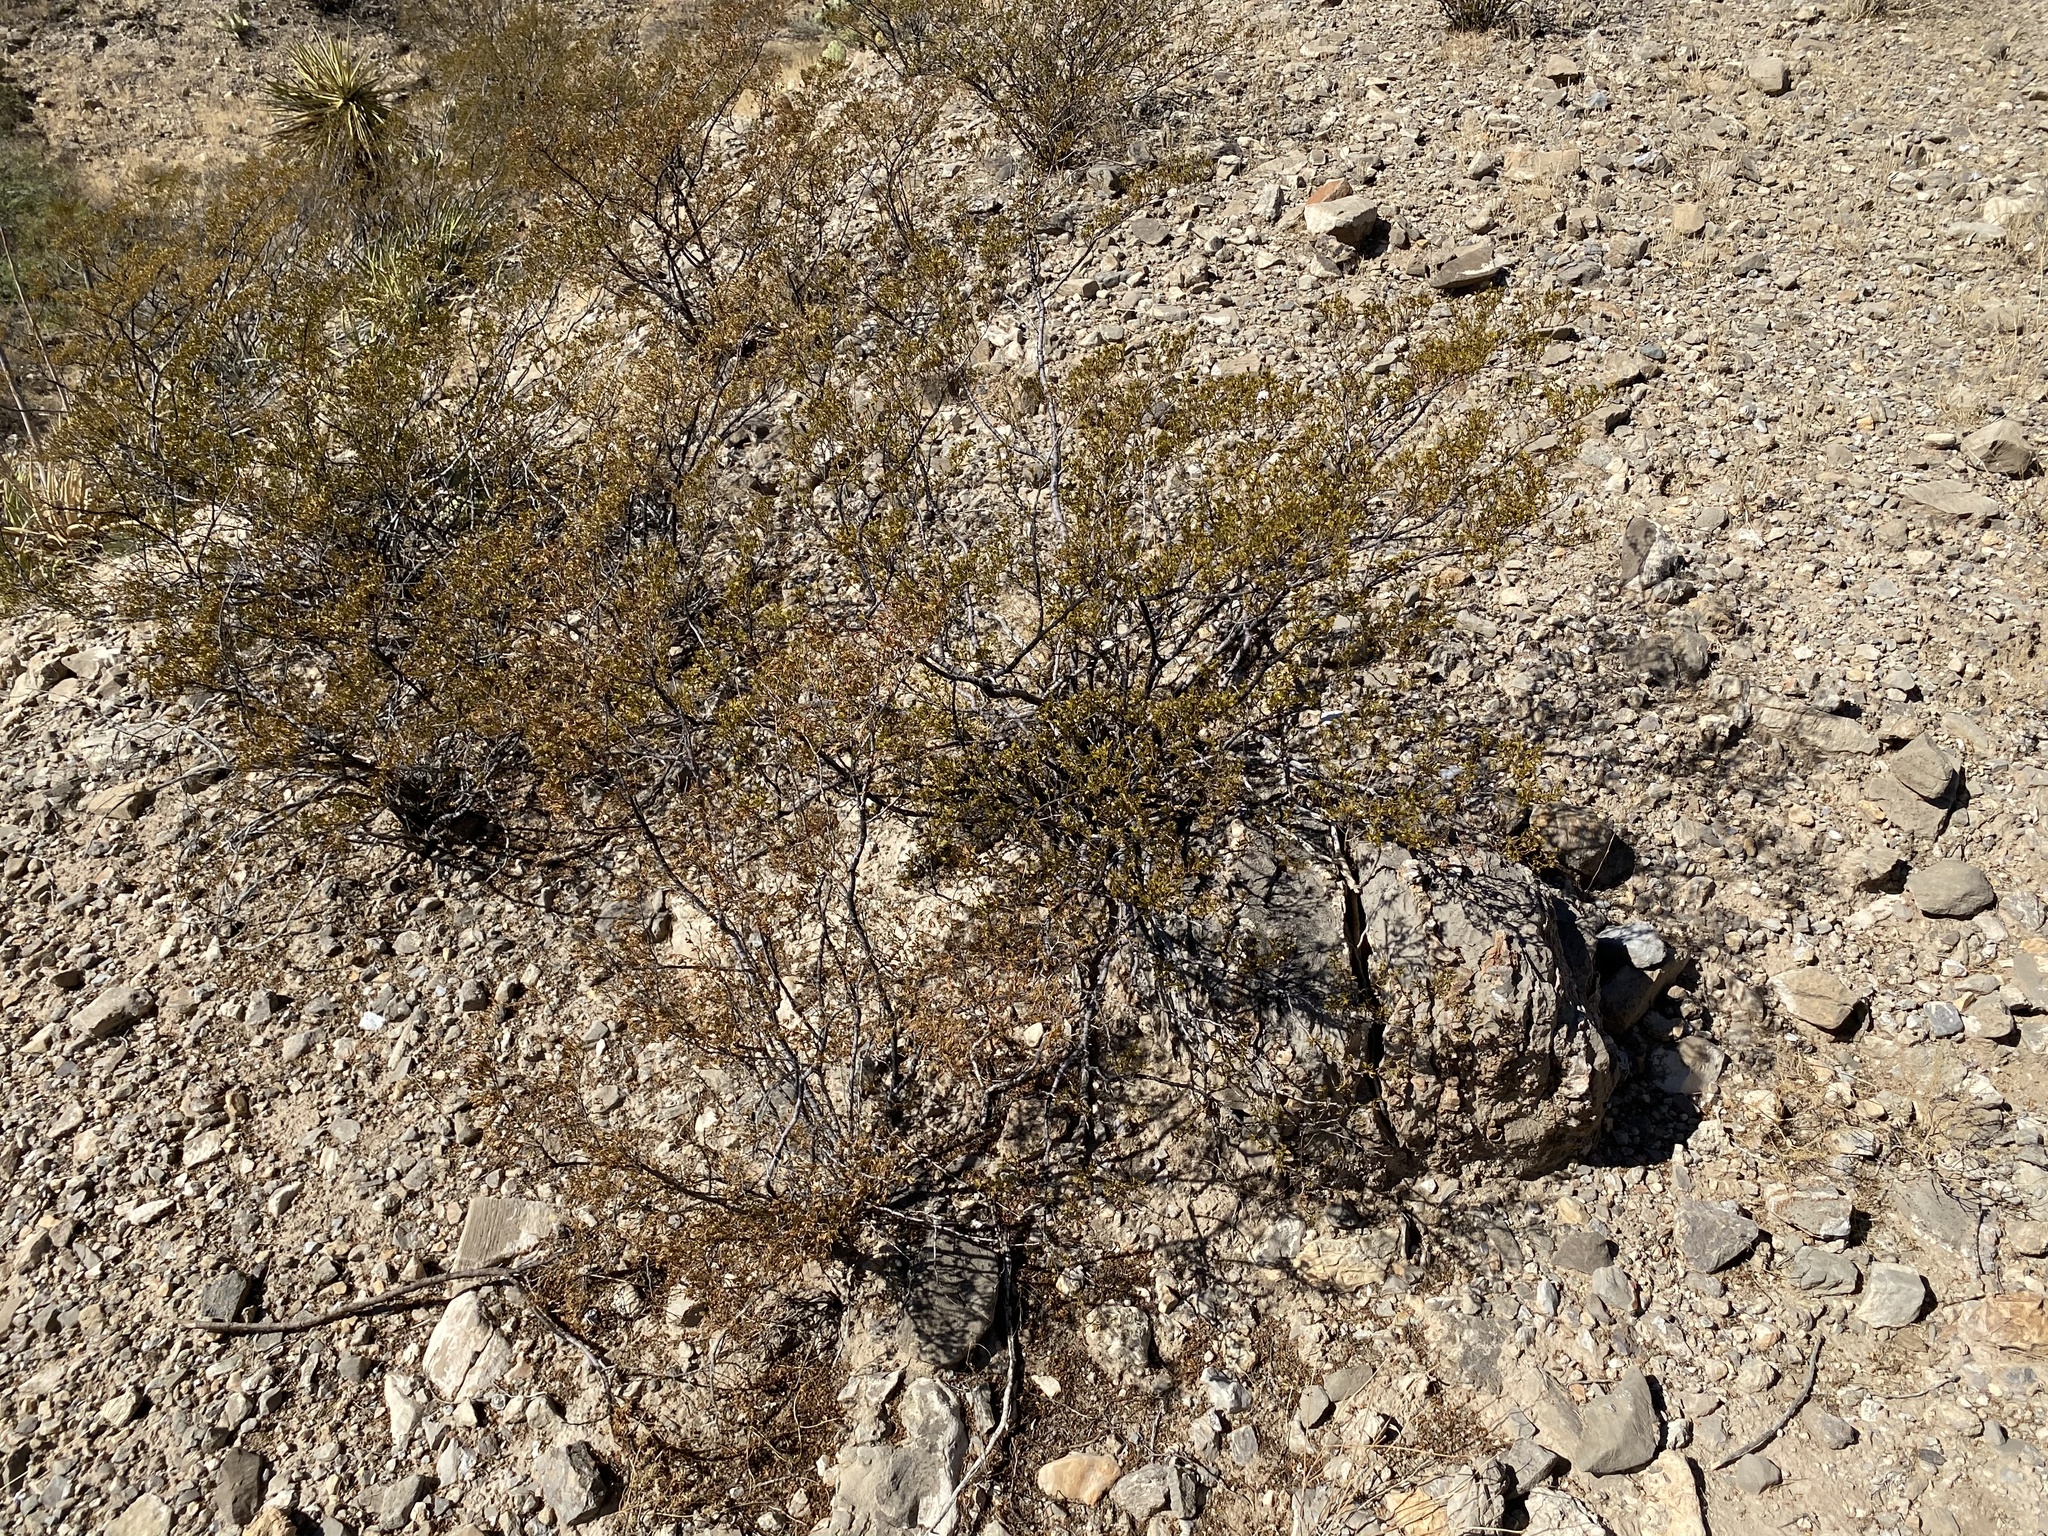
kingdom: Plantae
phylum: Tracheophyta
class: Magnoliopsida
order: Zygophyllales
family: Zygophyllaceae
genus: Larrea
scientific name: Larrea tridentata
